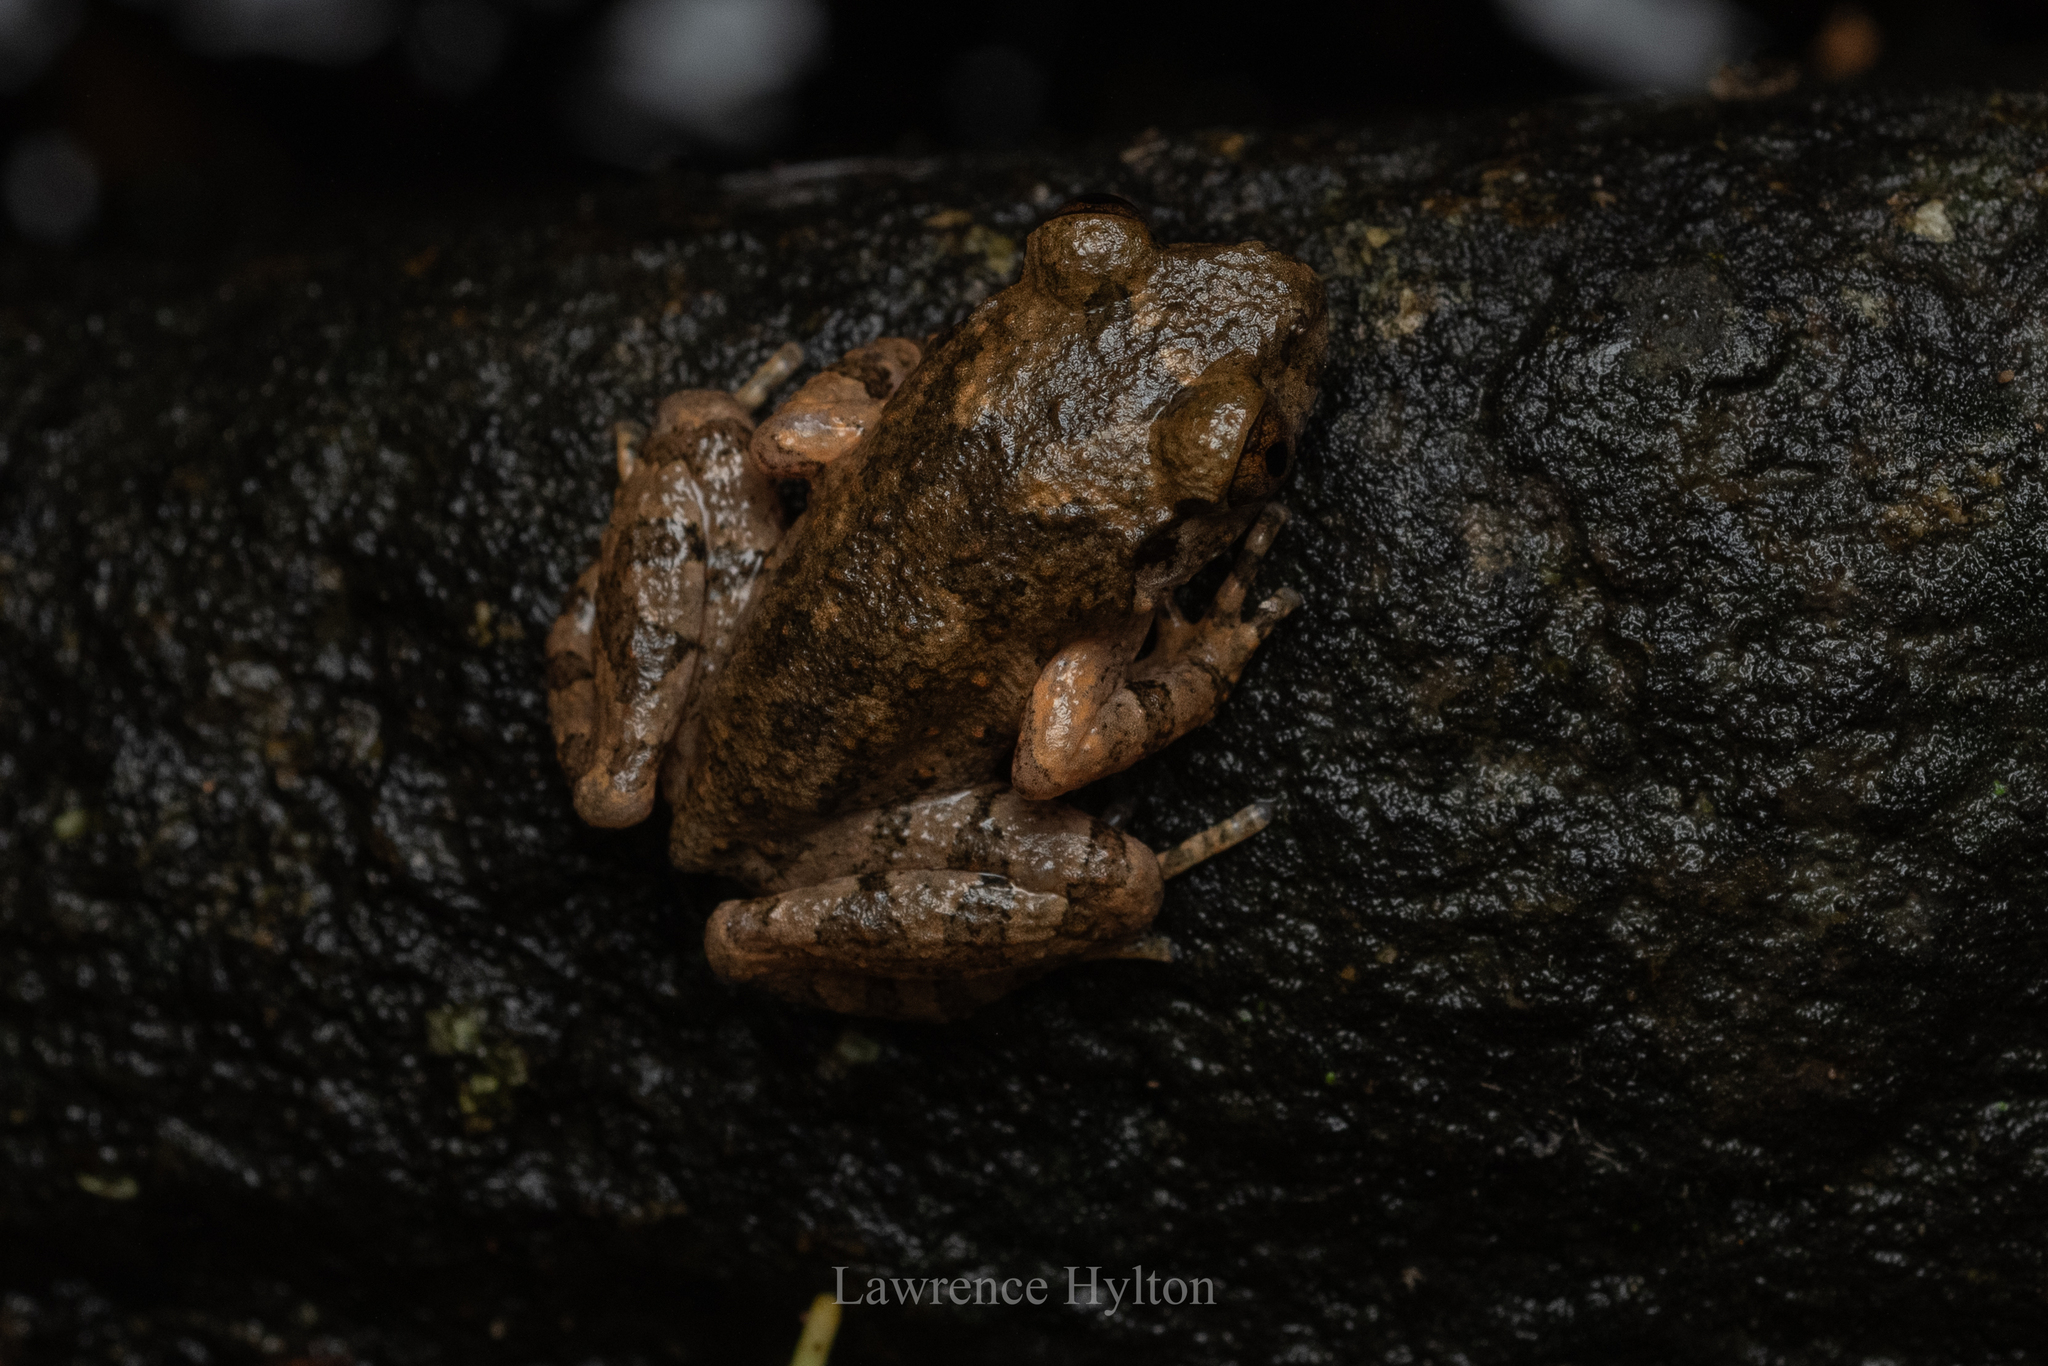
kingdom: Animalia
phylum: Chordata
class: Amphibia
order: Anura
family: Megophryidae
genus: Leptobrachella
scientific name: Leptobrachella laui
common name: Lau's leaf little toad
